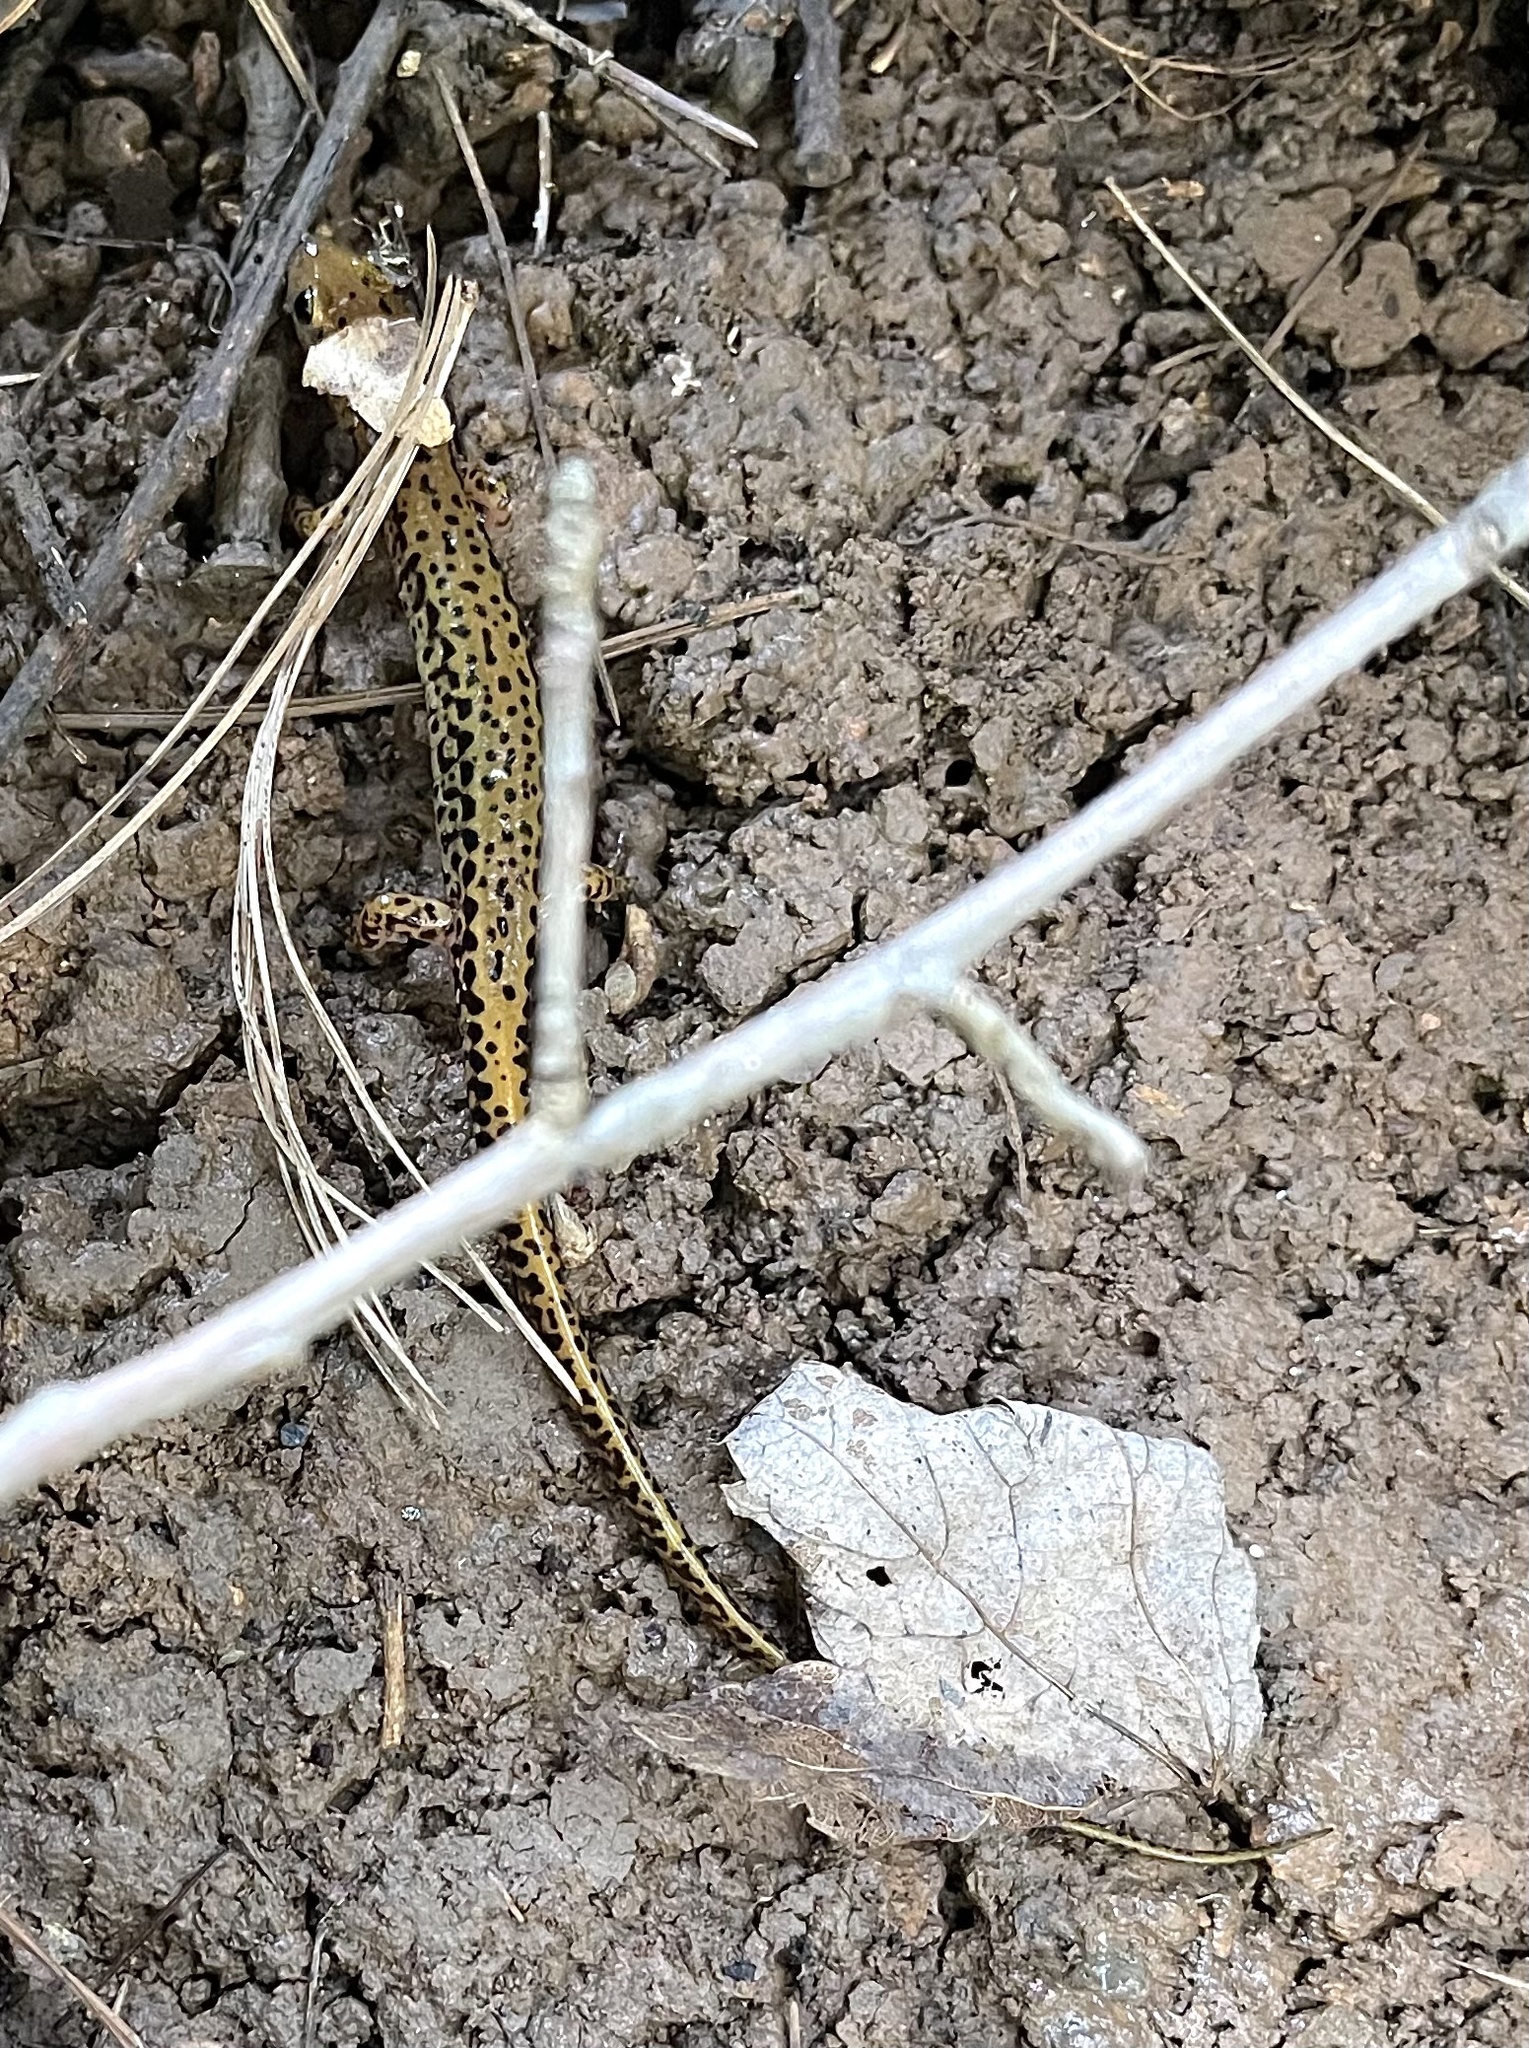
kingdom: Animalia
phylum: Chordata
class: Amphibia
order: Caudata
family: Plethodontidae
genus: Eurycea
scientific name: Eurycea longicauda
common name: Long-tailed salamander
